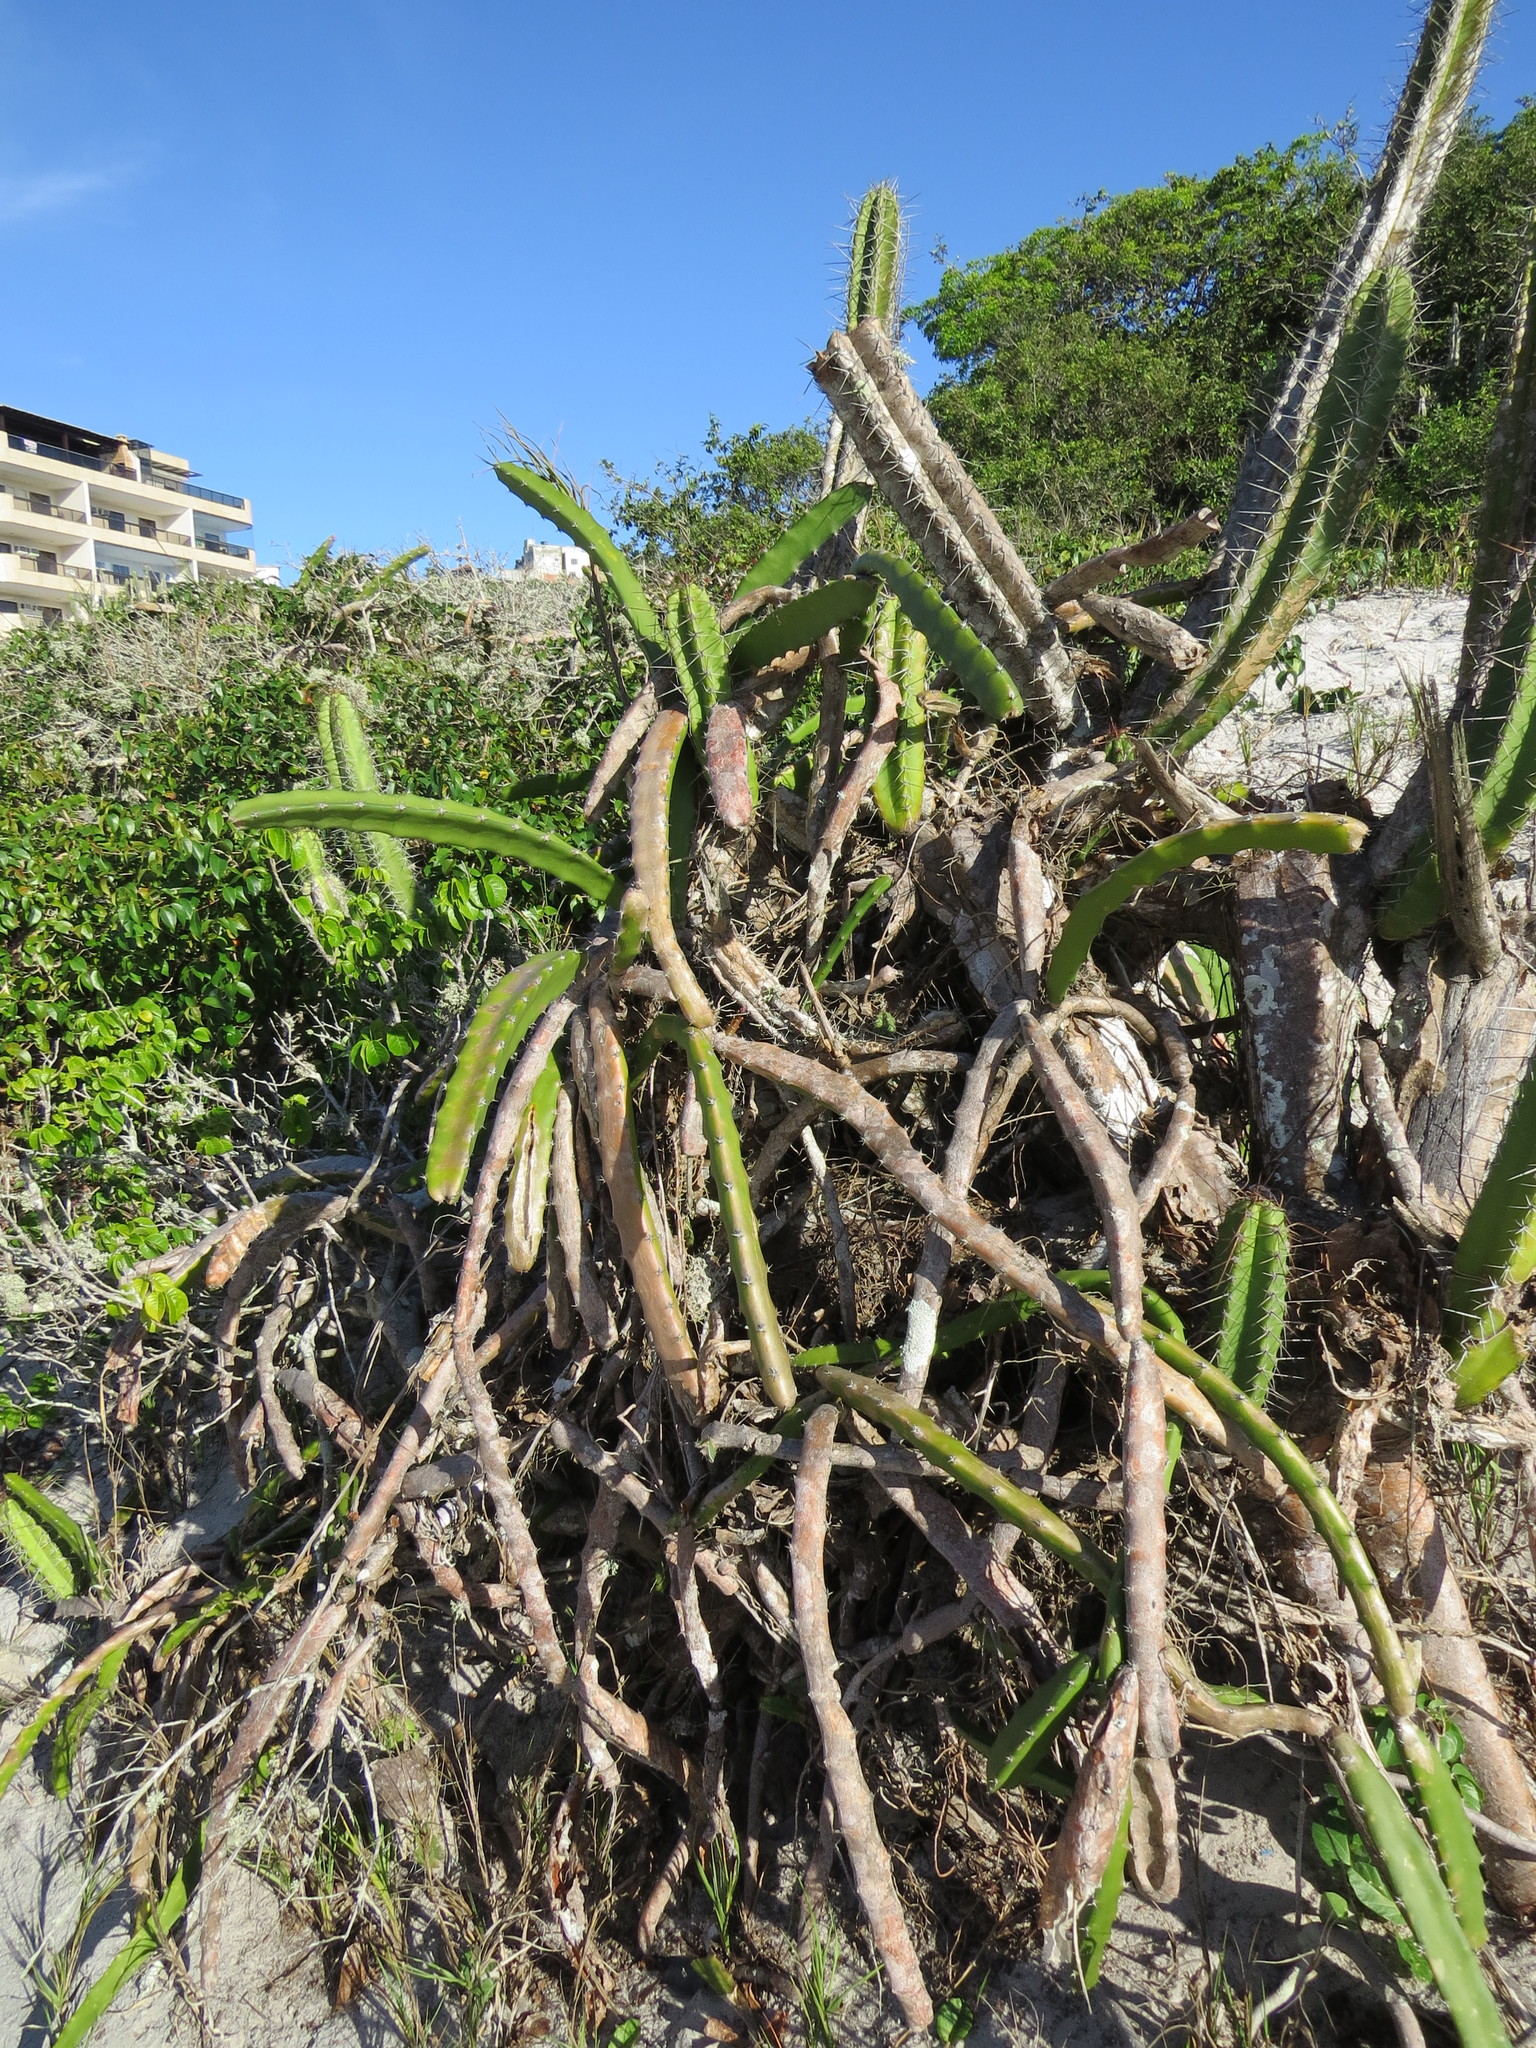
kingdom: Plantae
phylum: Tracheophyta
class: Magnoliopsida
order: Caryophyllales
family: Cactaceae
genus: Selenicereus
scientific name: Selenicereus setaceus
